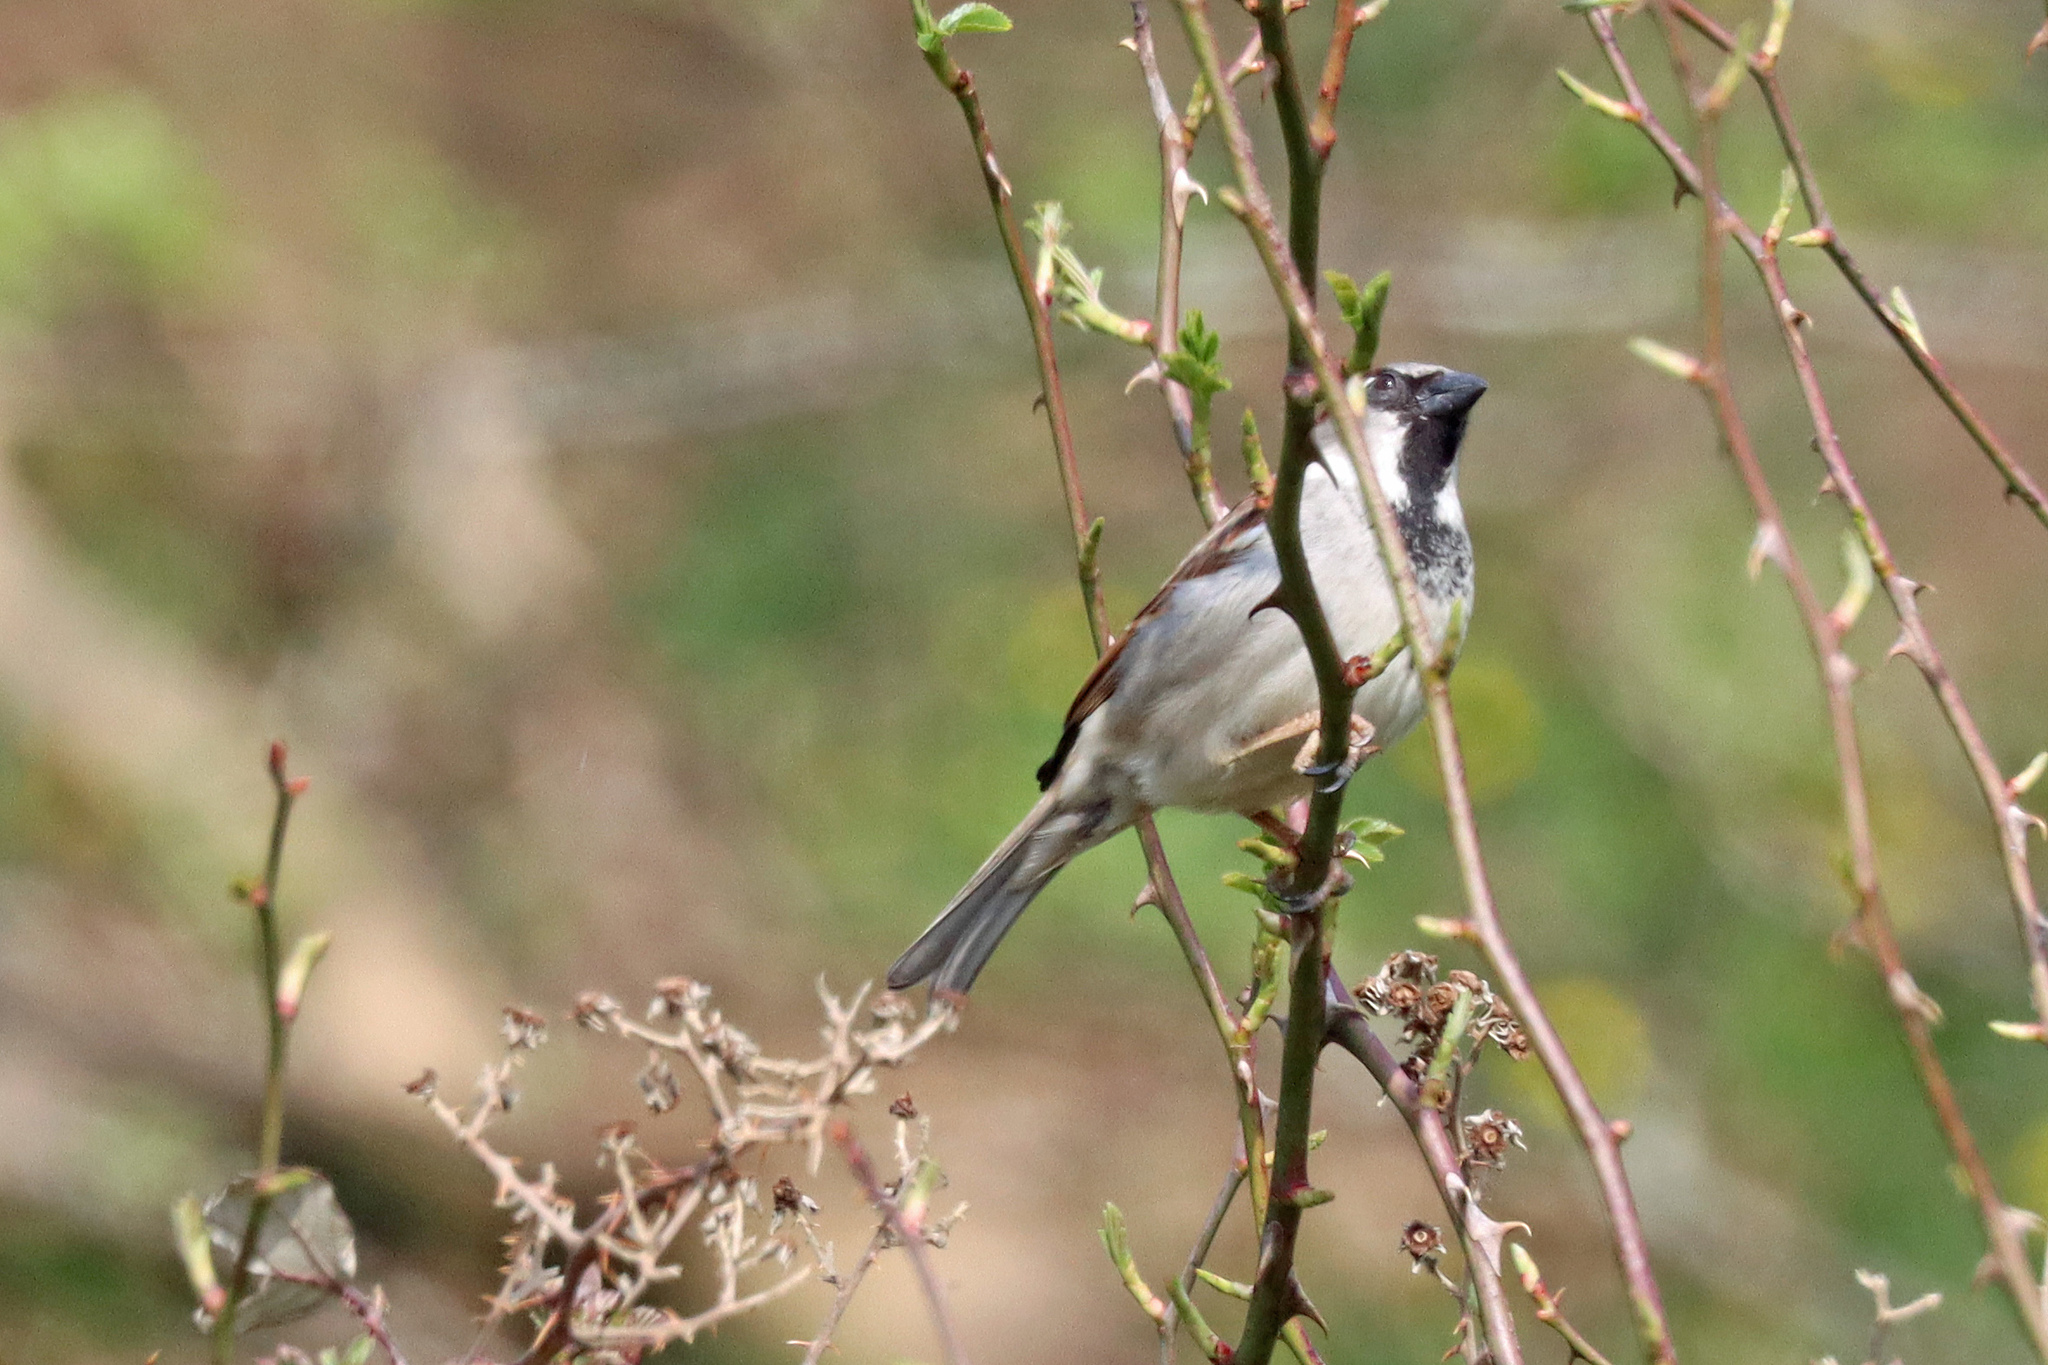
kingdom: Animalia
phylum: Chordata
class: Aves
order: Passeriformes
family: Passeridae
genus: Passer
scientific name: Passer domesticus
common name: House sparrow
